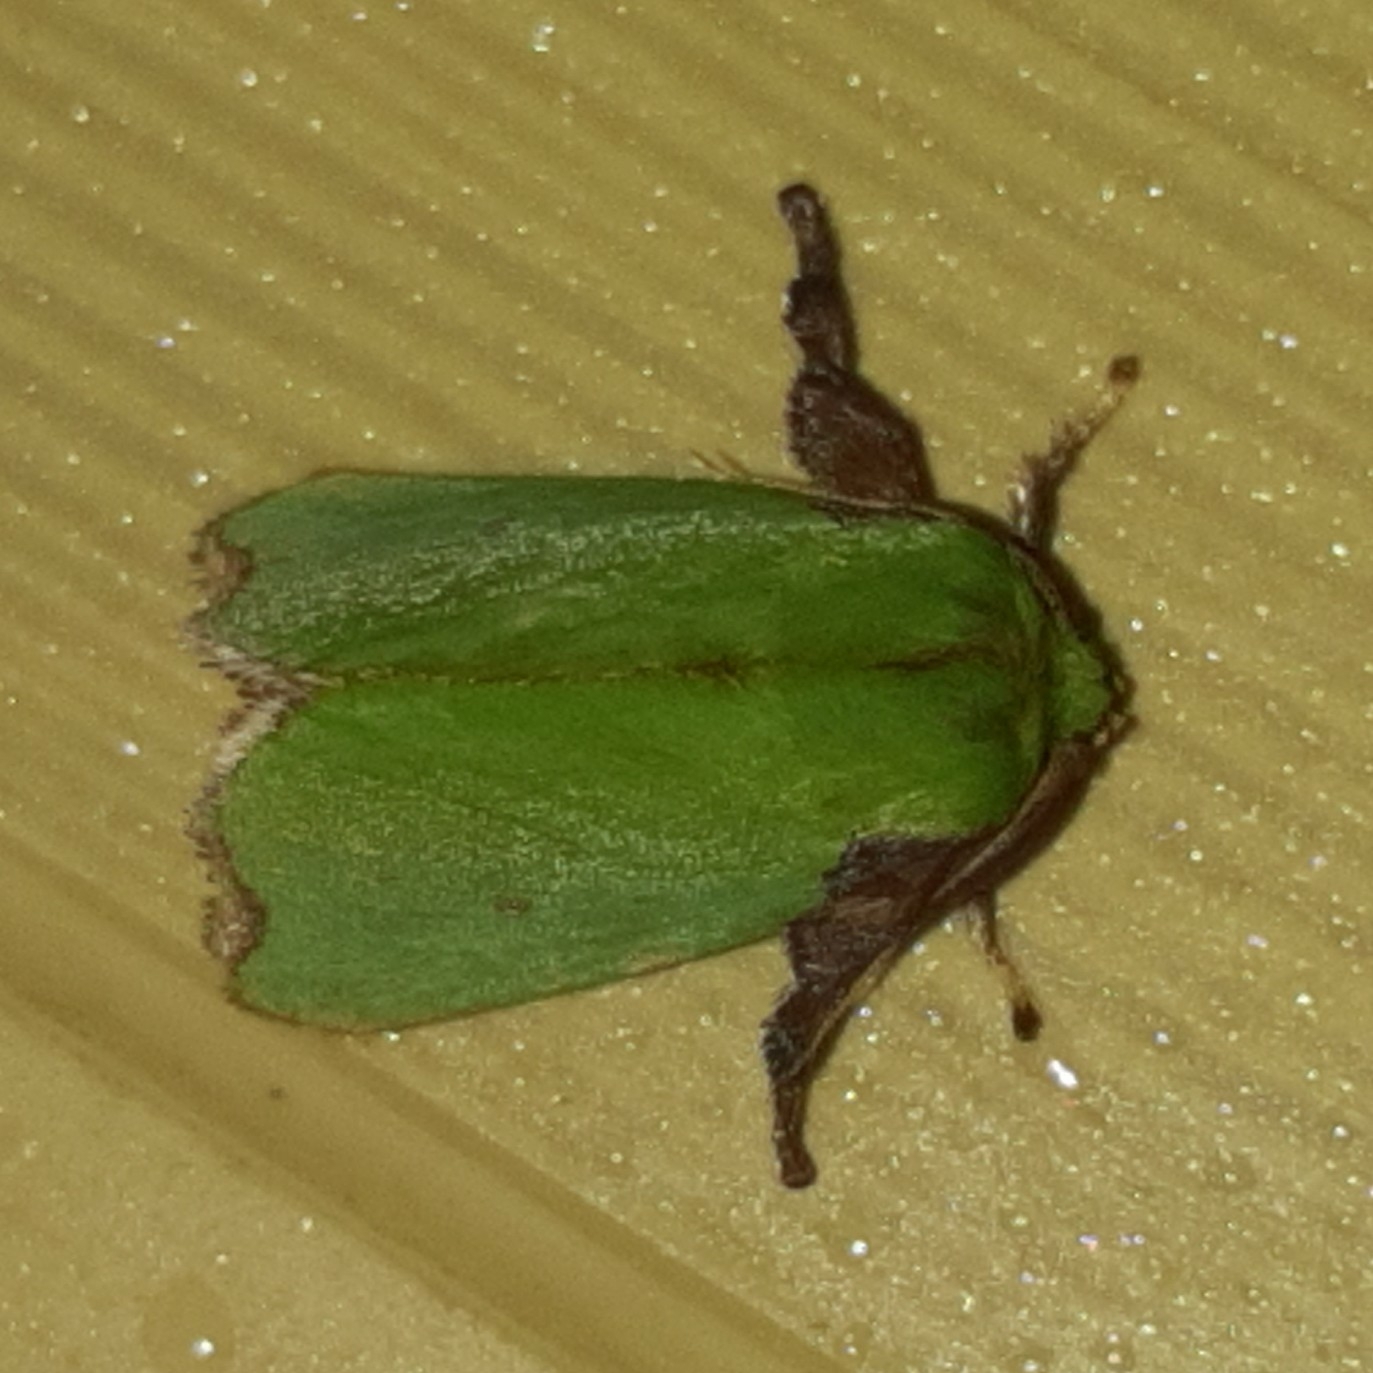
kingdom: Animalia
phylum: Arthropoda
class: Insecta
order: Lepidoptera
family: Limacodidae
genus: Parasa
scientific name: Parasa wellesca
